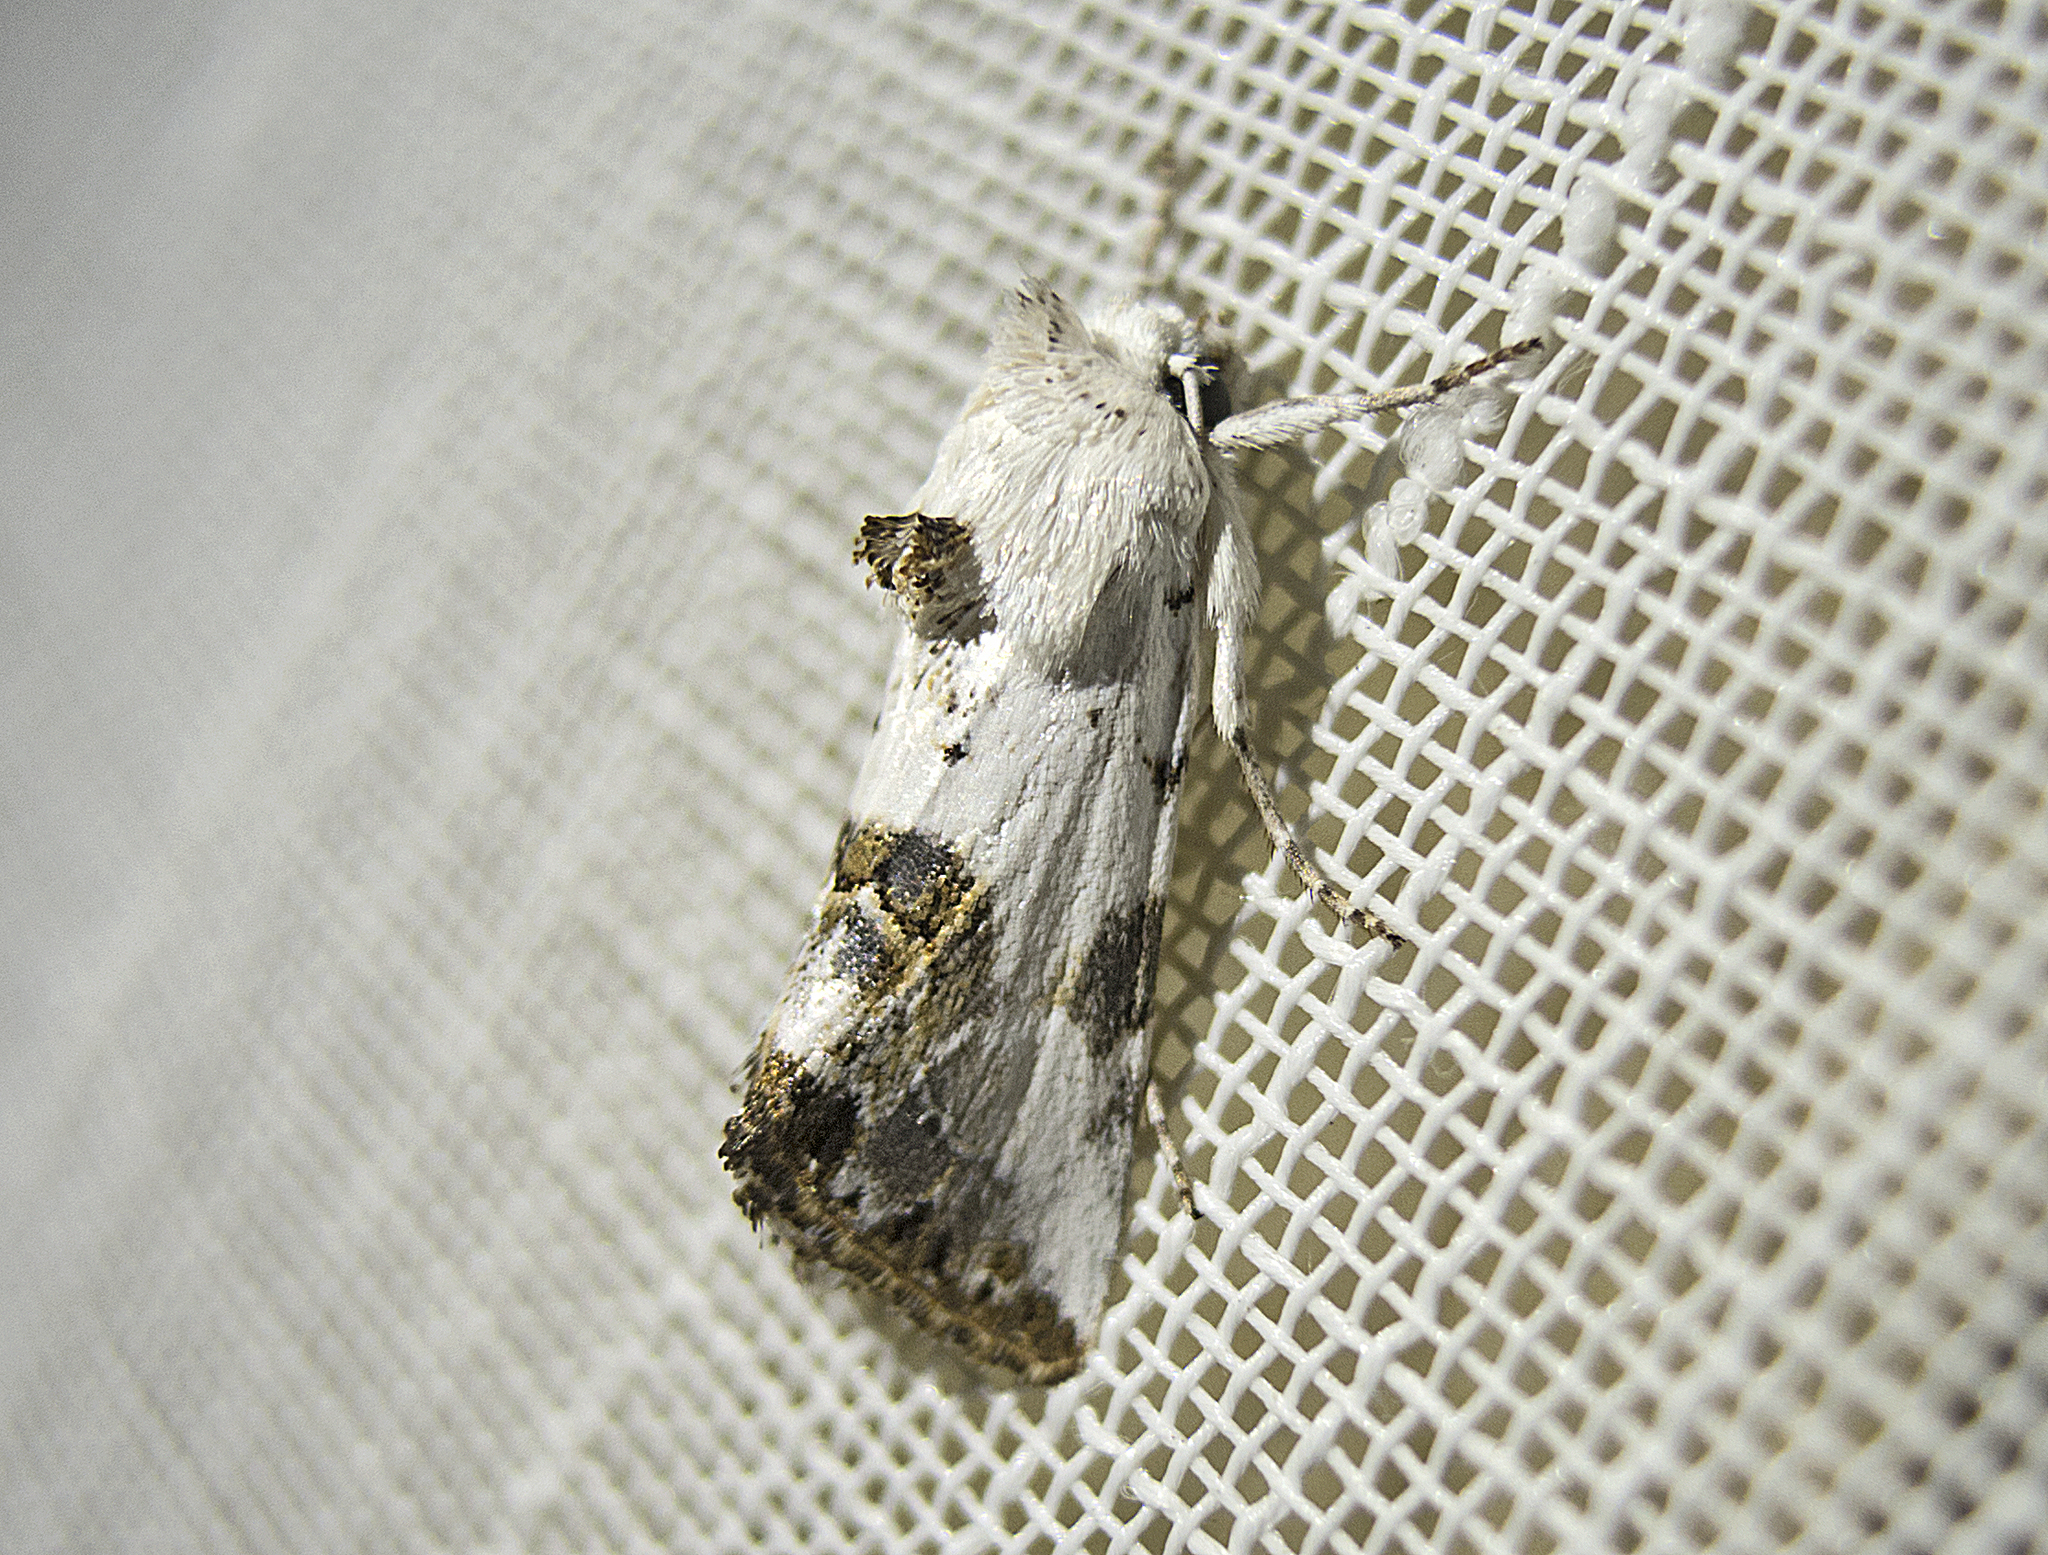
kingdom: Animalia
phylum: Arthropoda
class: Insecta
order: Lepidoptera
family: Noctuidae
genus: Calophasia
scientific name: Calophasia opalina
